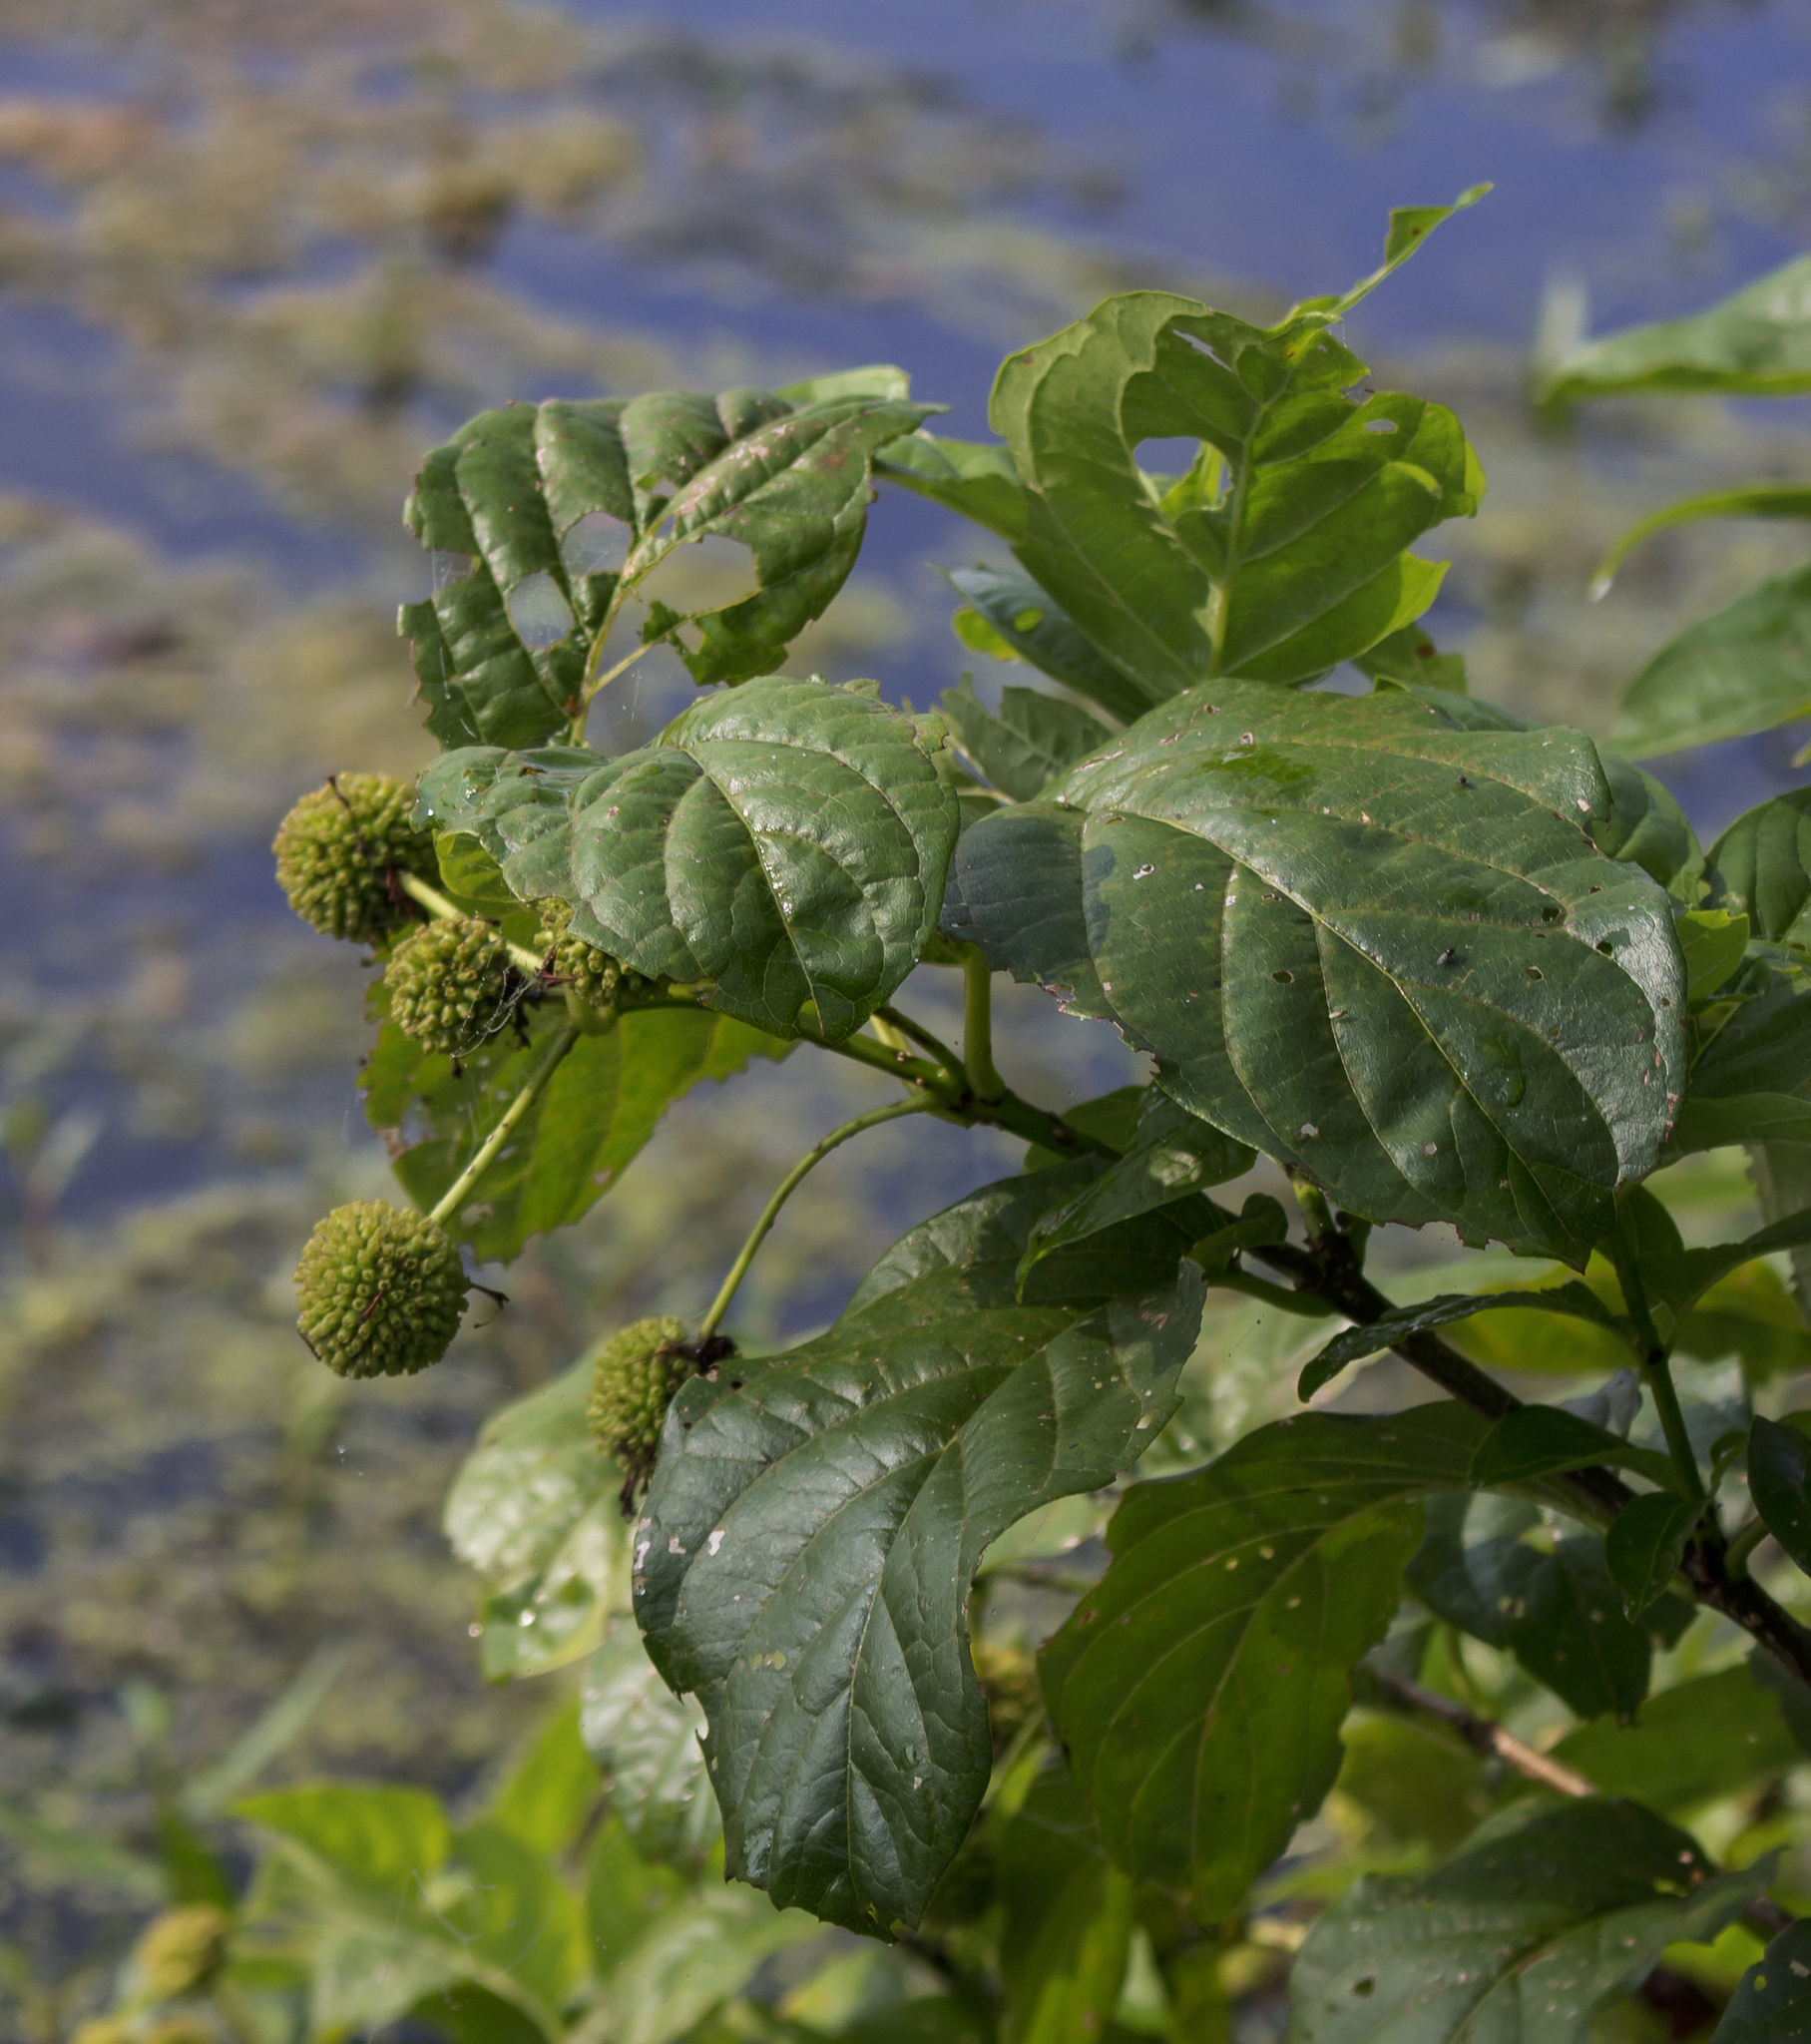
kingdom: Plantae
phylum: Tracheophyta
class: Magnoliopsida
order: Gentianales
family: Rubiaceae
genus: Cephalanthus
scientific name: Cephalanthus occidentalis
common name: Button-willow
